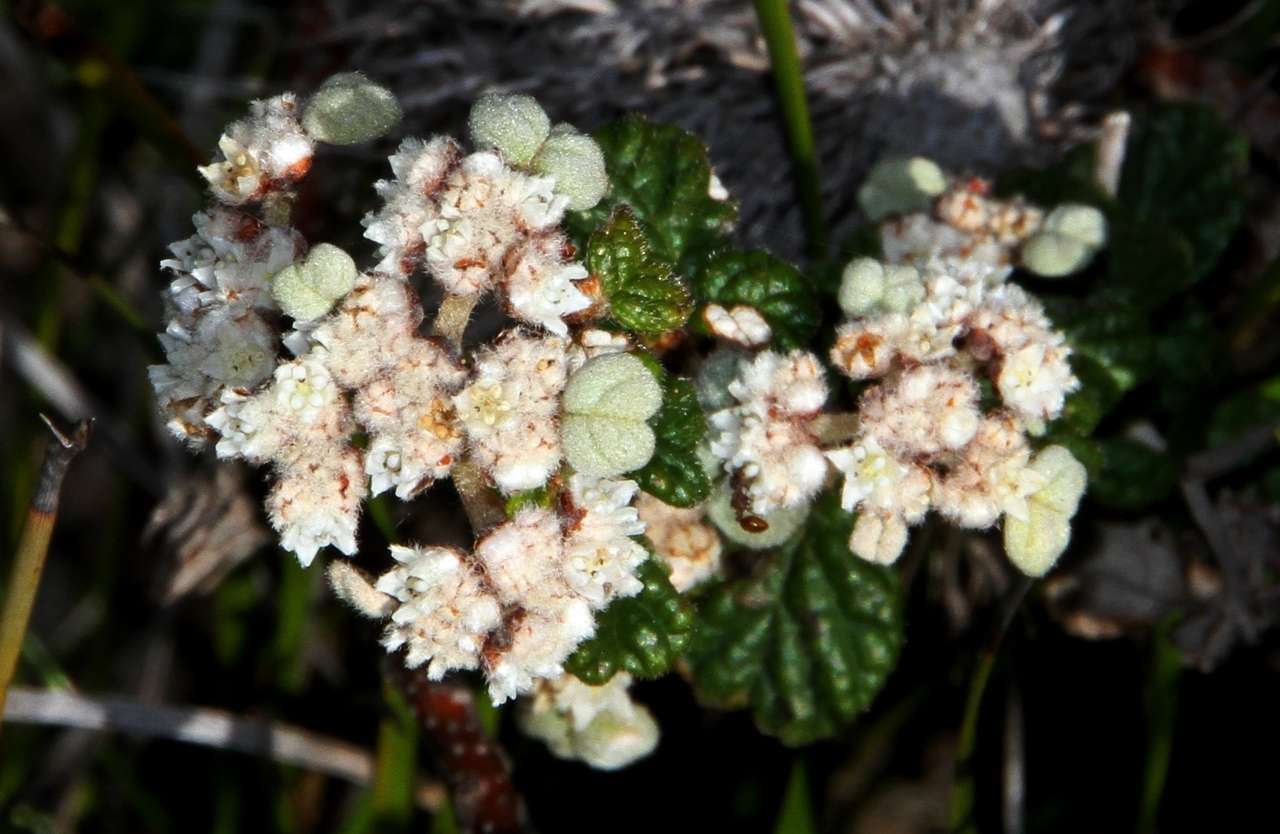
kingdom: Plantae
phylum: Tracheophyta
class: Magnoliopsida
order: Rosales
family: Rhamnaceae
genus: Spyridium
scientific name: Spyridium parvifolium
